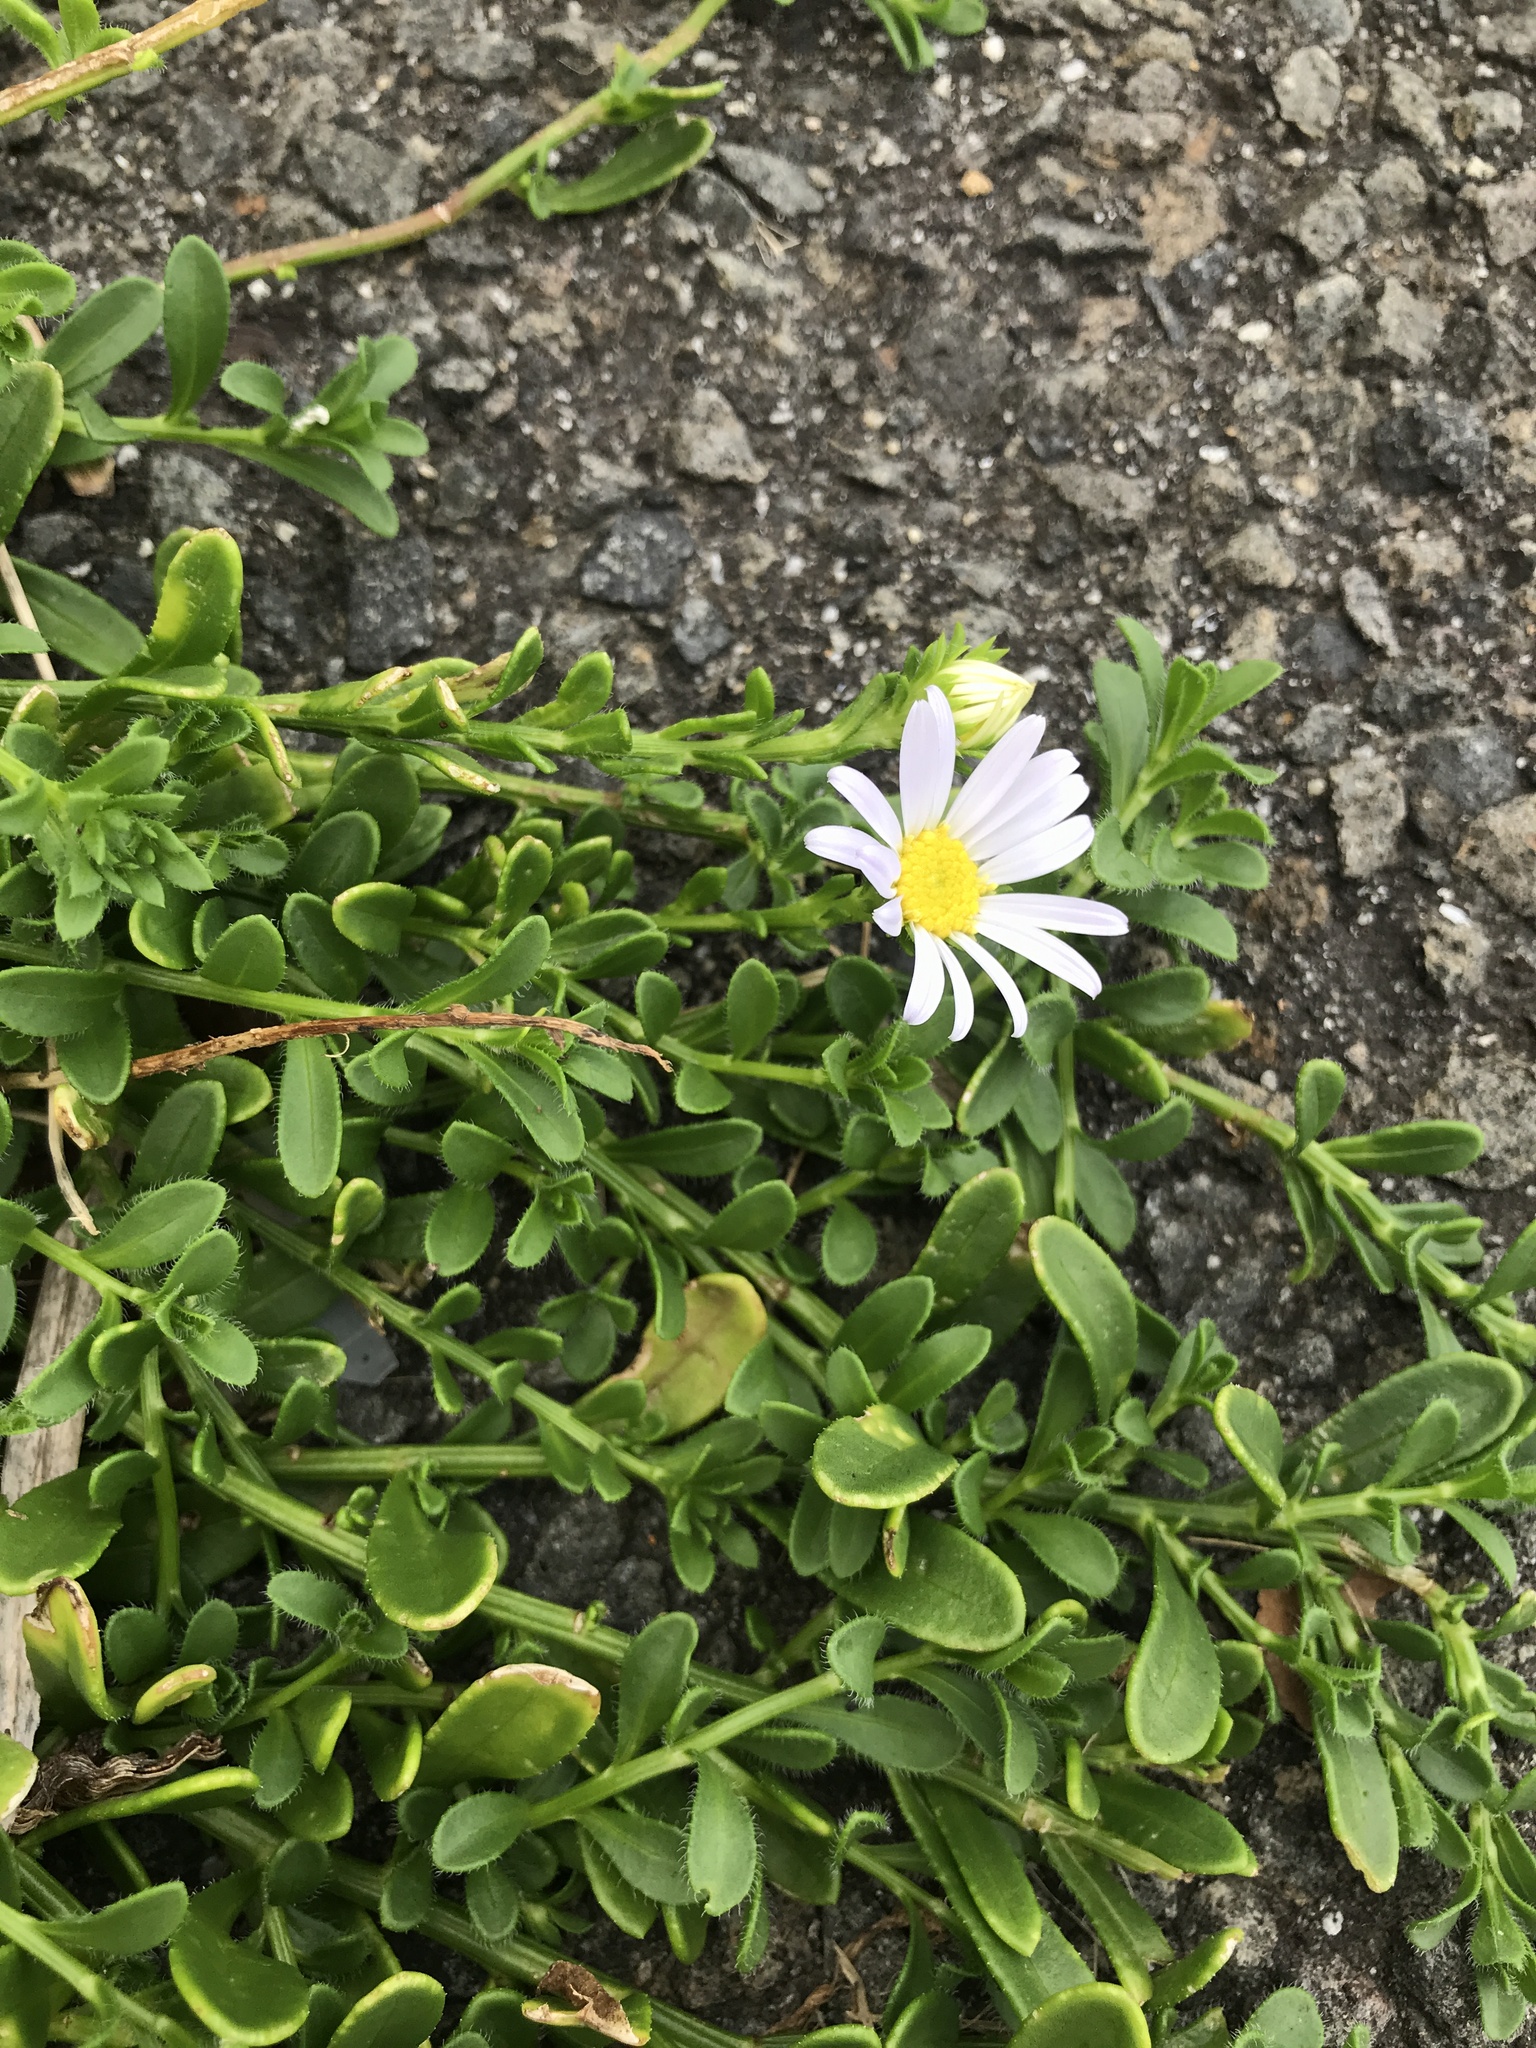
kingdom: Plantae
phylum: Tracheophyta
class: Magnoliopsida
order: Asterales
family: Asteraceae
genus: Heteropappus
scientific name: Heteropappus arenarius
